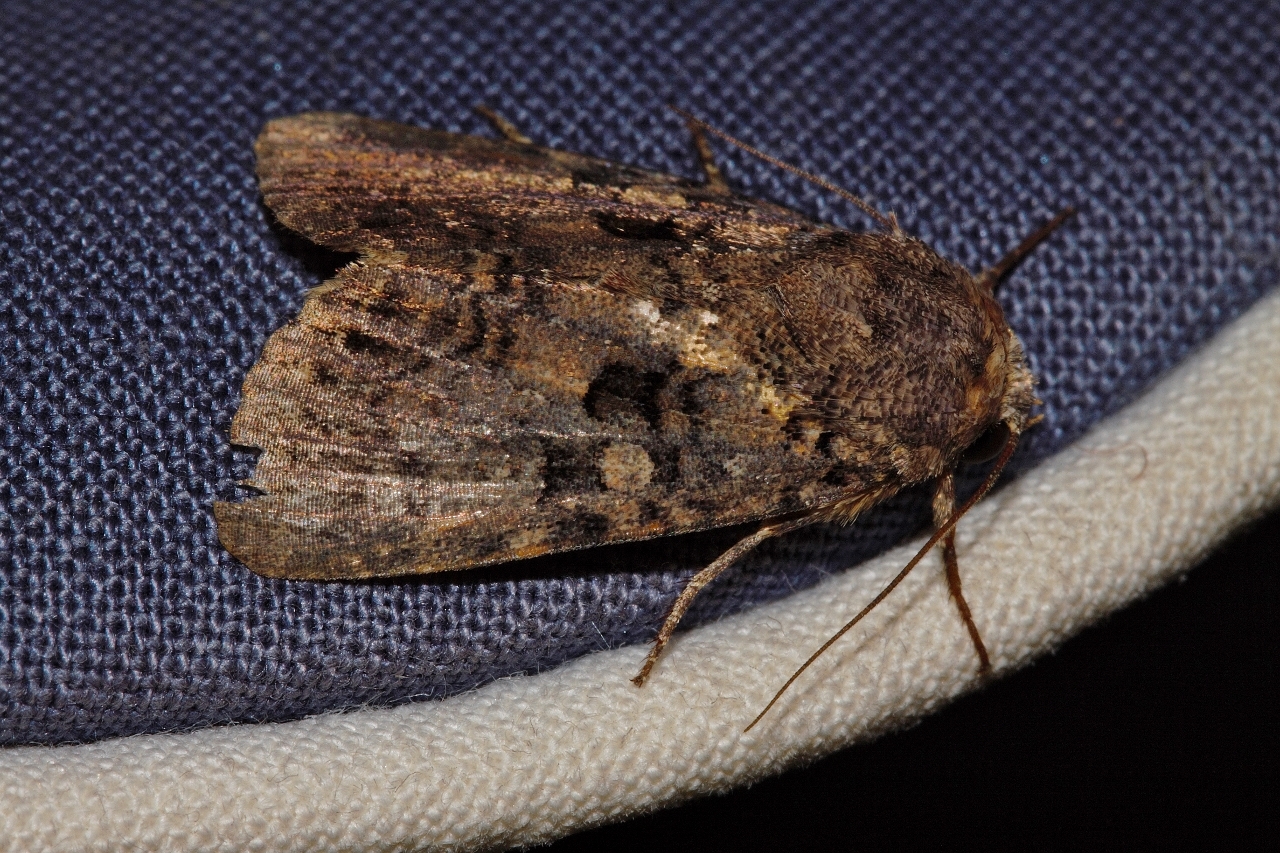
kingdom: Animalia
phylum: Arthropoda
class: Insecta
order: Lepidoptera
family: Noctuidae
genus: Feliniopsis
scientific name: Feliniopsis quadrisigna
